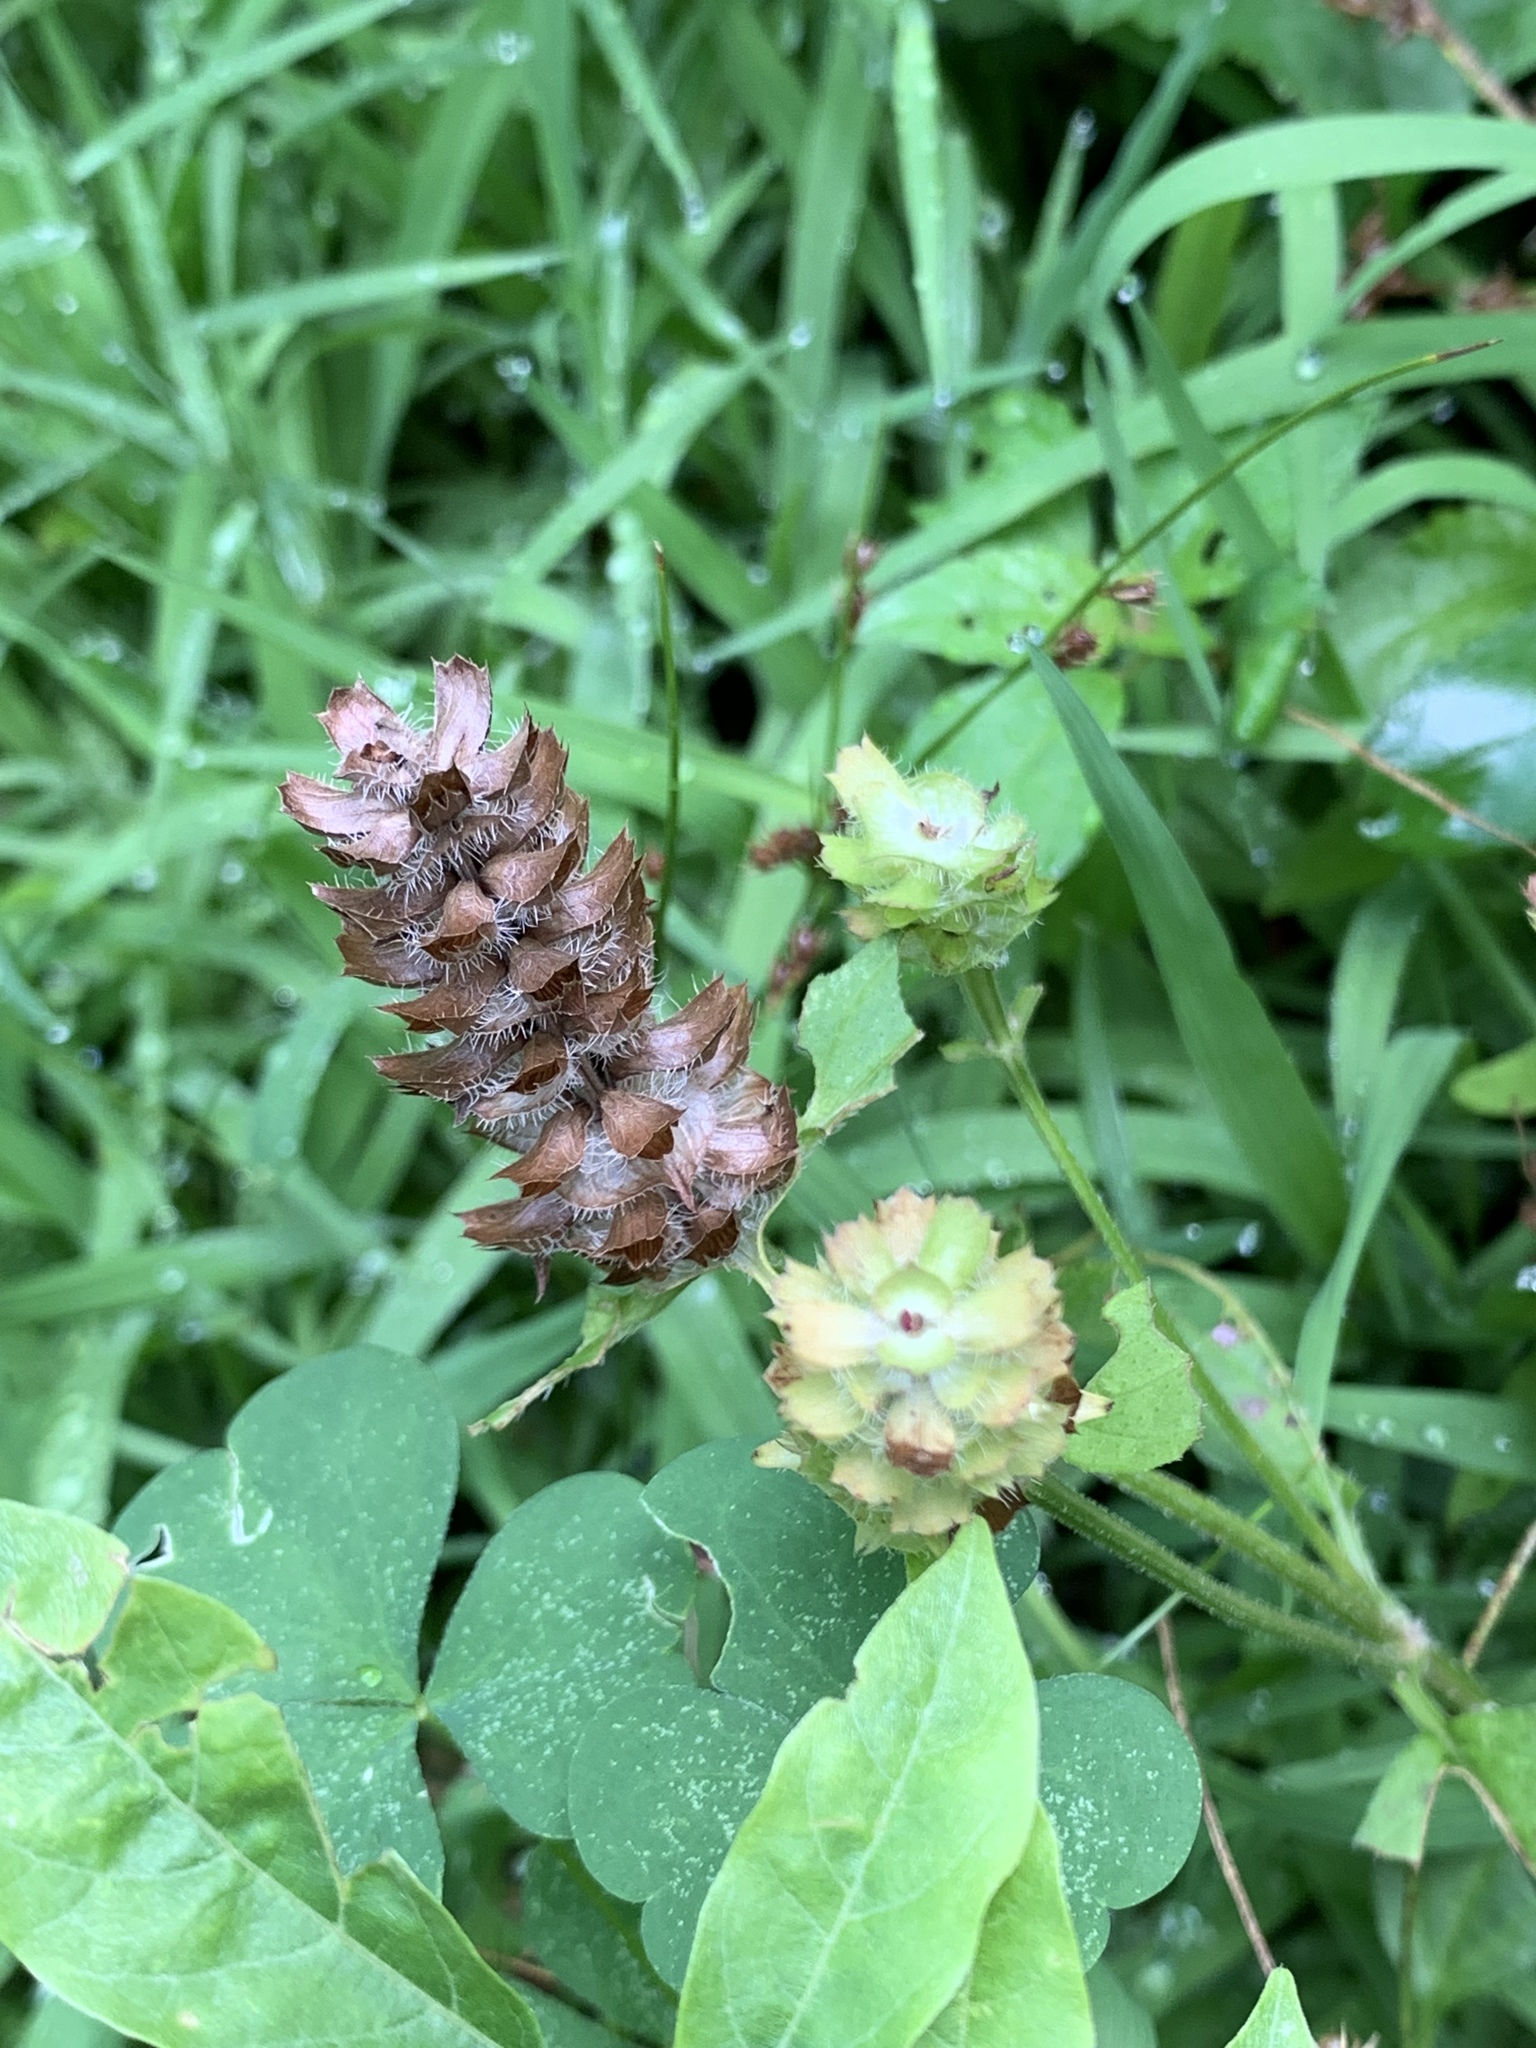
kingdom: Plantae
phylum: Tracheophyta
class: Magnoliopsida
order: Lamiales
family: Lamiaceae
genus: Prunella
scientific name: Prunella vulgaris
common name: Heal-all
